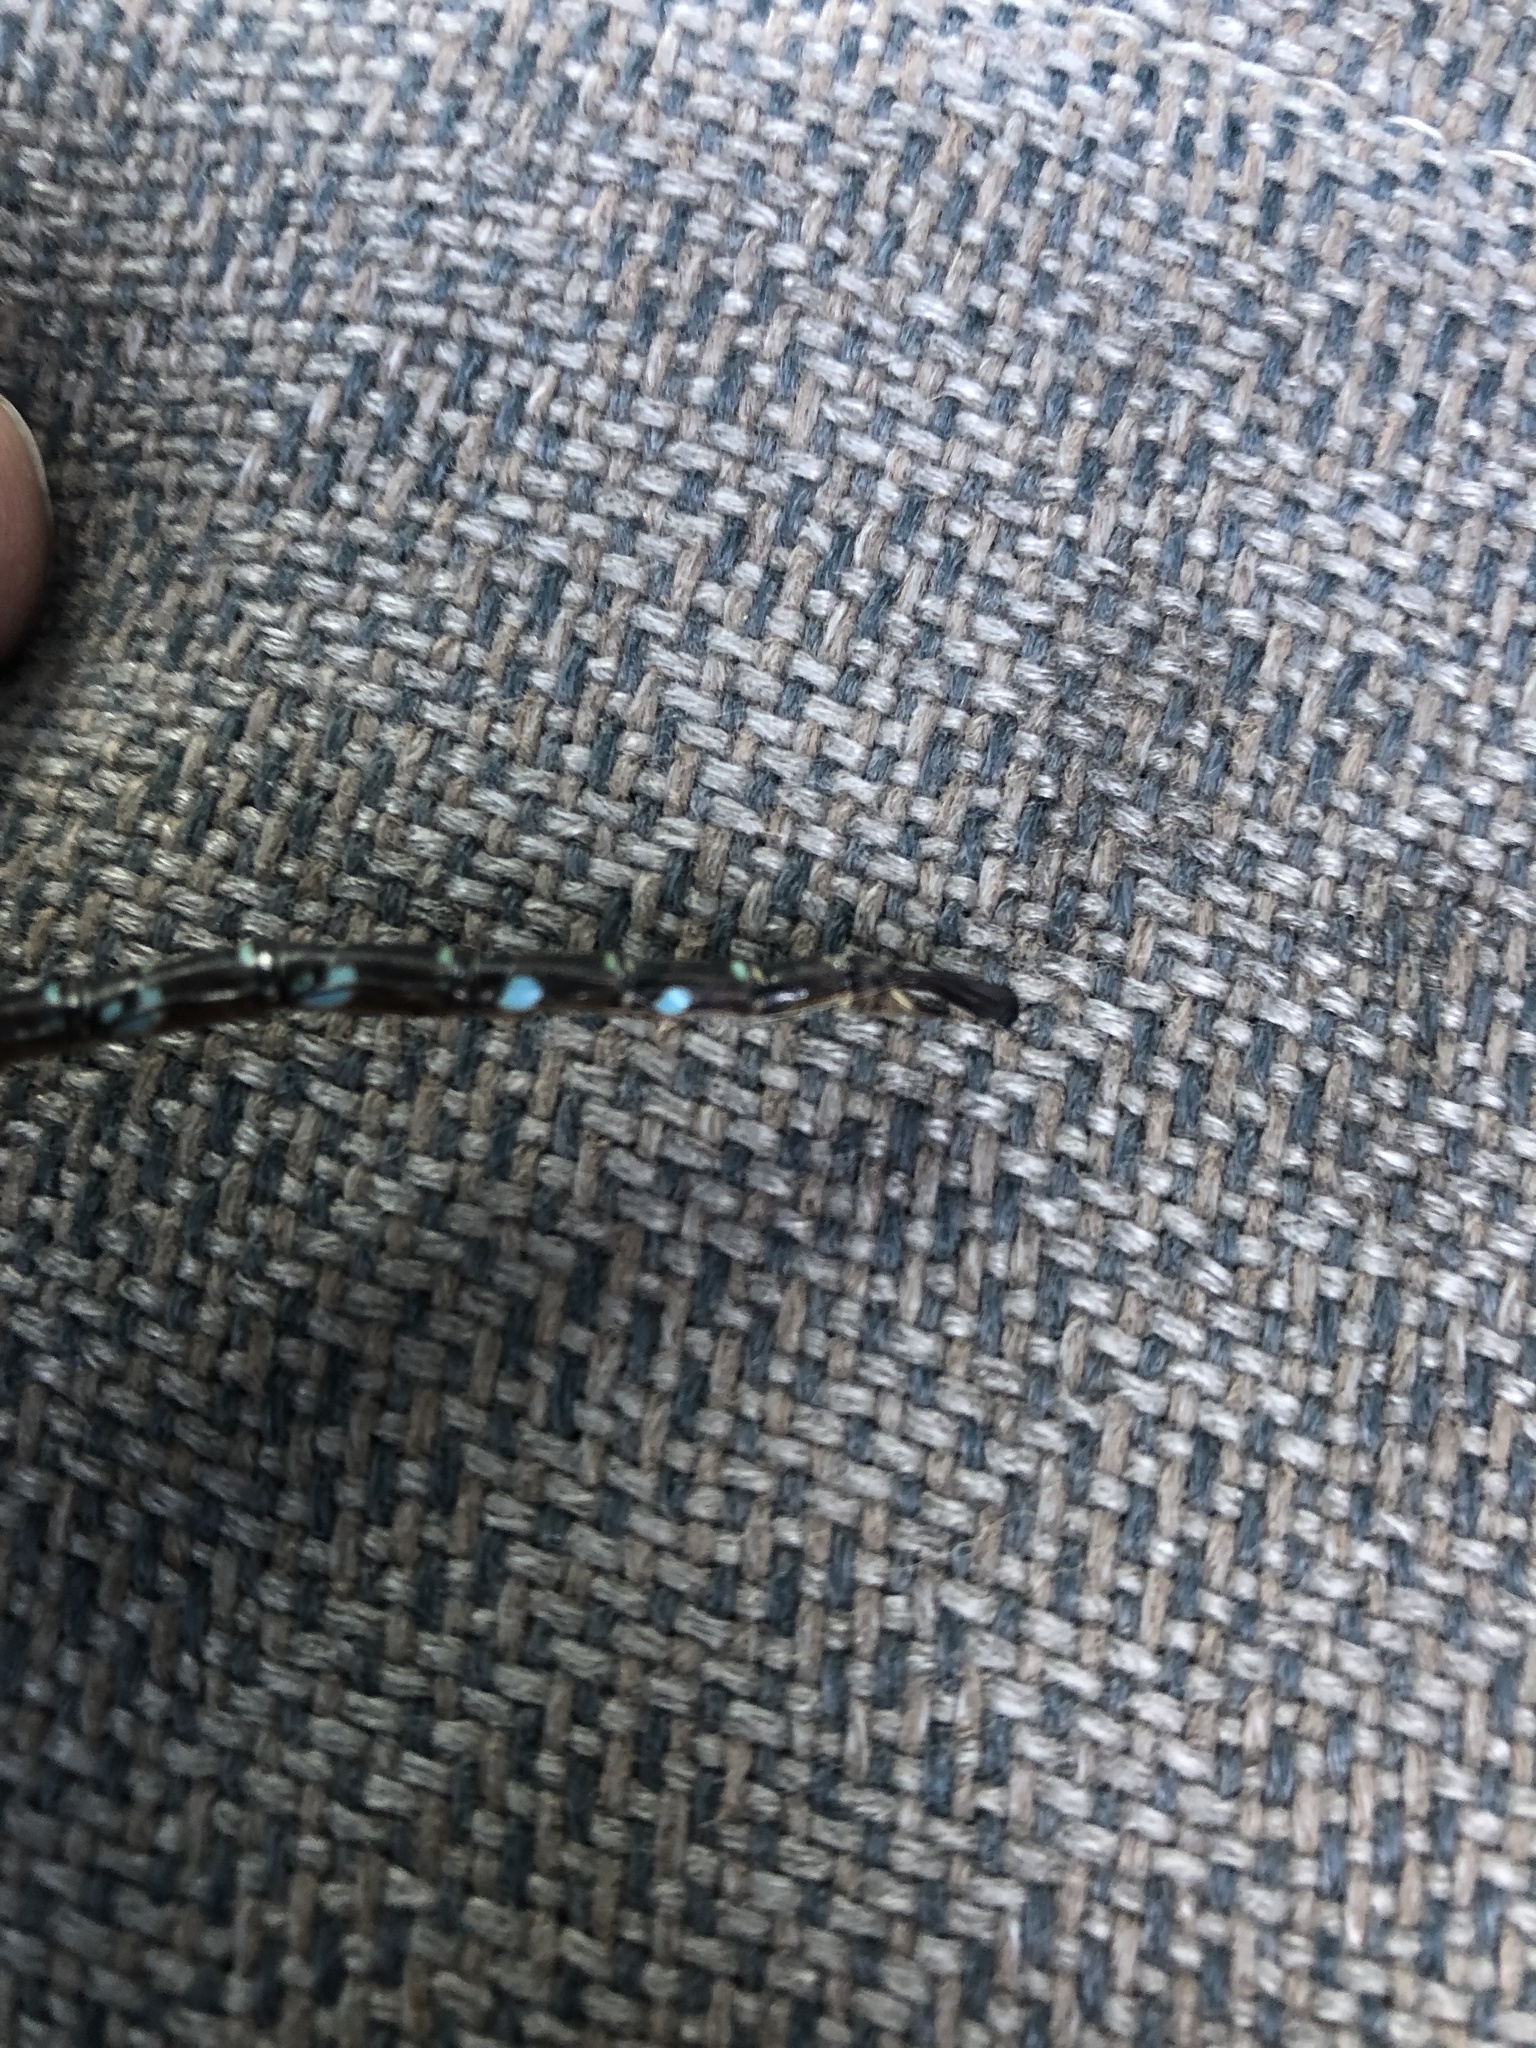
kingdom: Animalia
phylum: Arthropoda
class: Insecta
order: Odonata
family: Aeshnidae
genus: Aeshna
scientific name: Aeshna umbrosa
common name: Shadow darner
